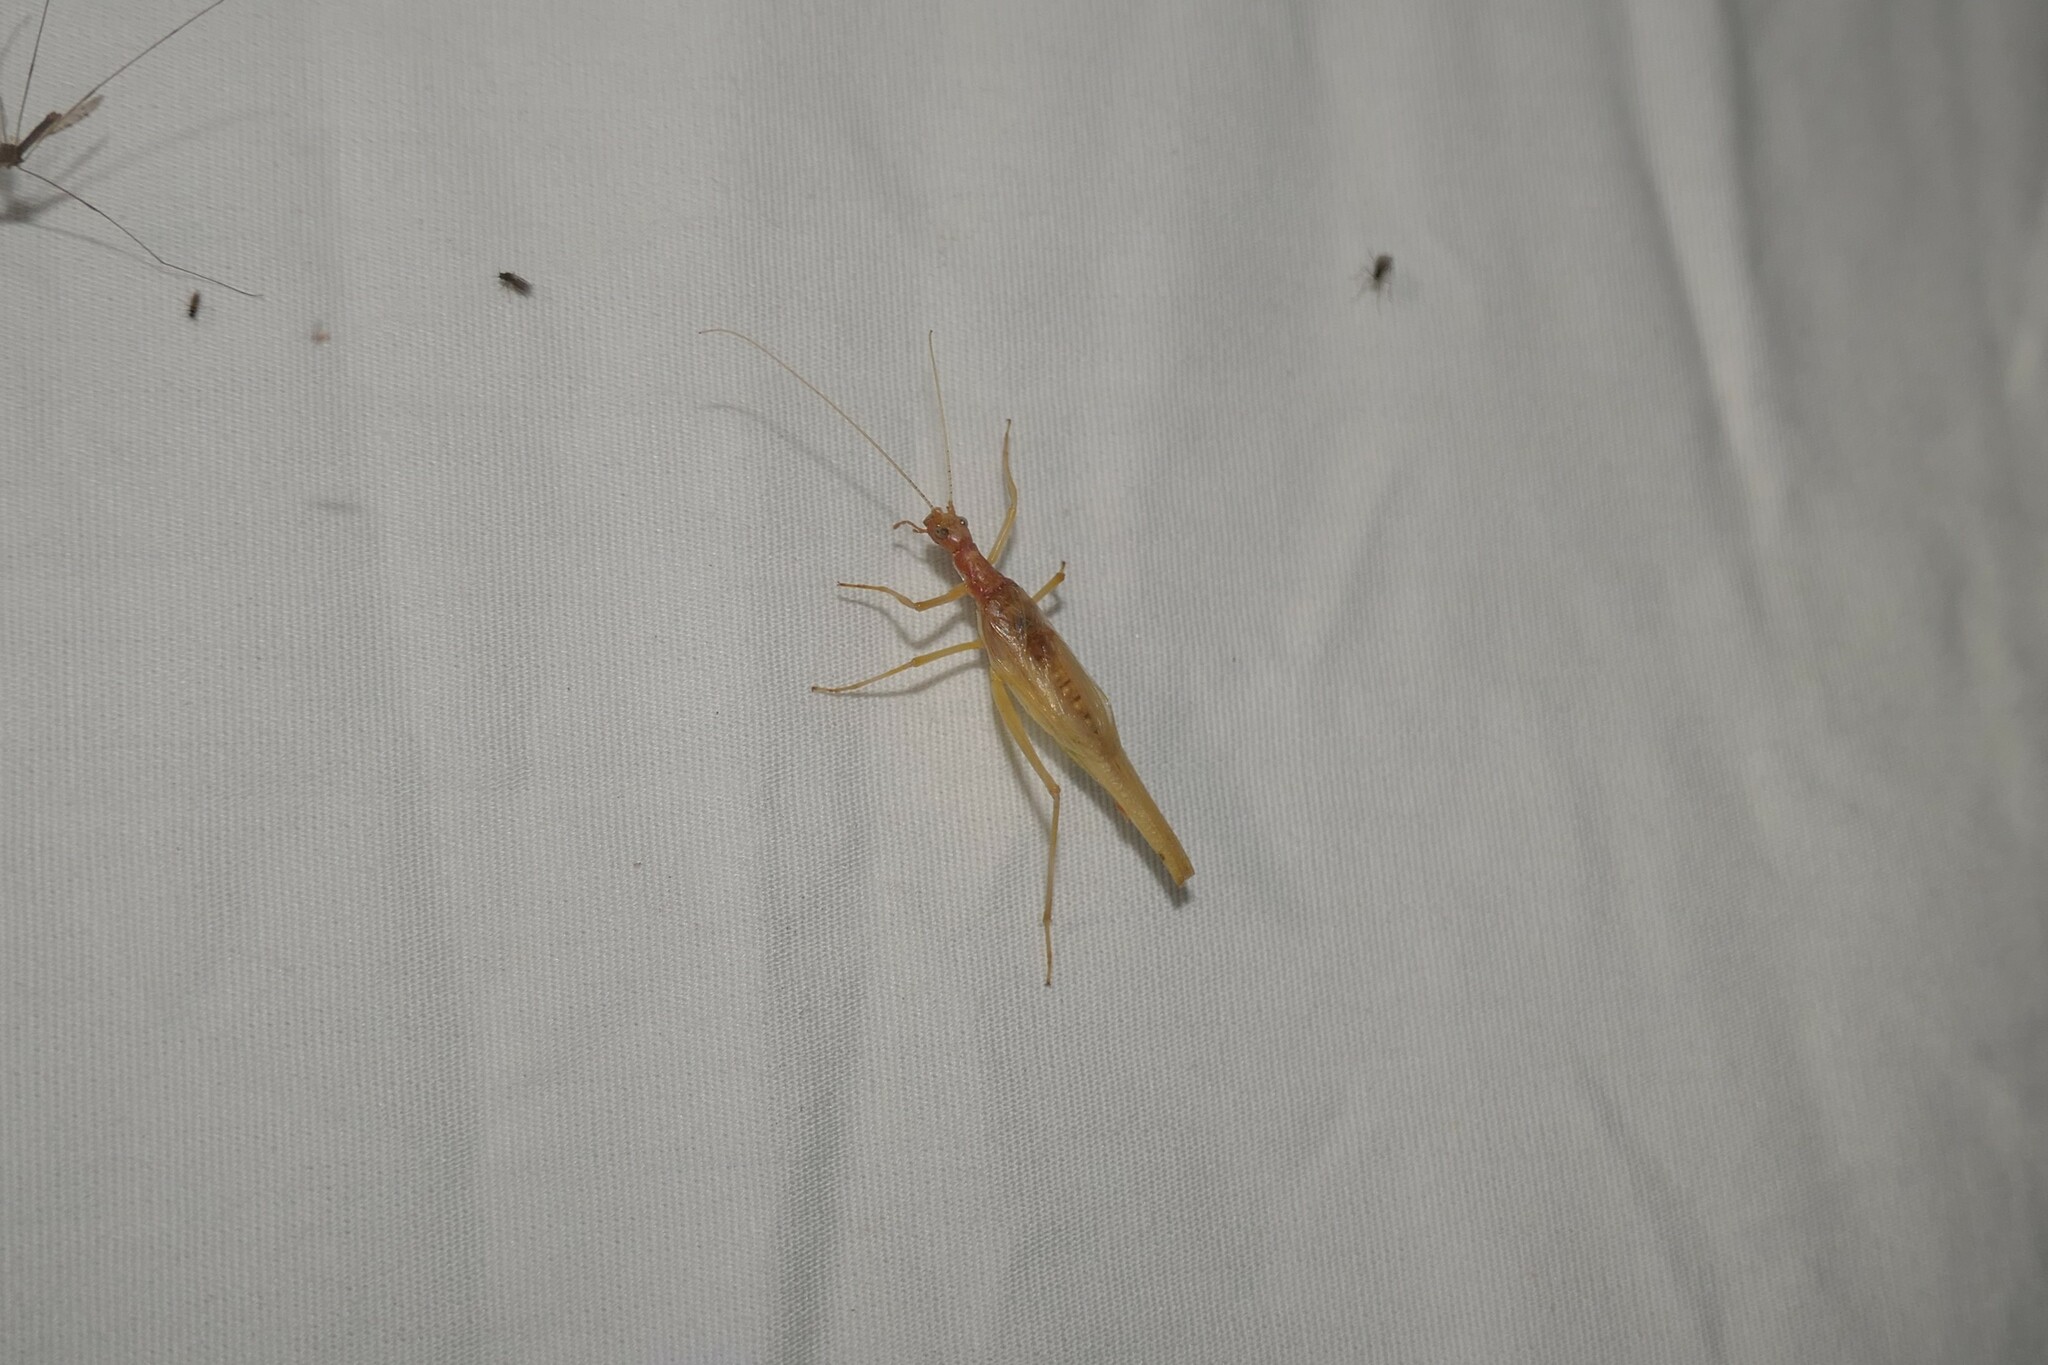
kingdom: Animalia
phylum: Arthropoda
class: Insecta
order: Orthoptera
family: Gryllidae
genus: Neoxabea
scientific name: Neoxabea bipunctata
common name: Two-spotted tree cricket
